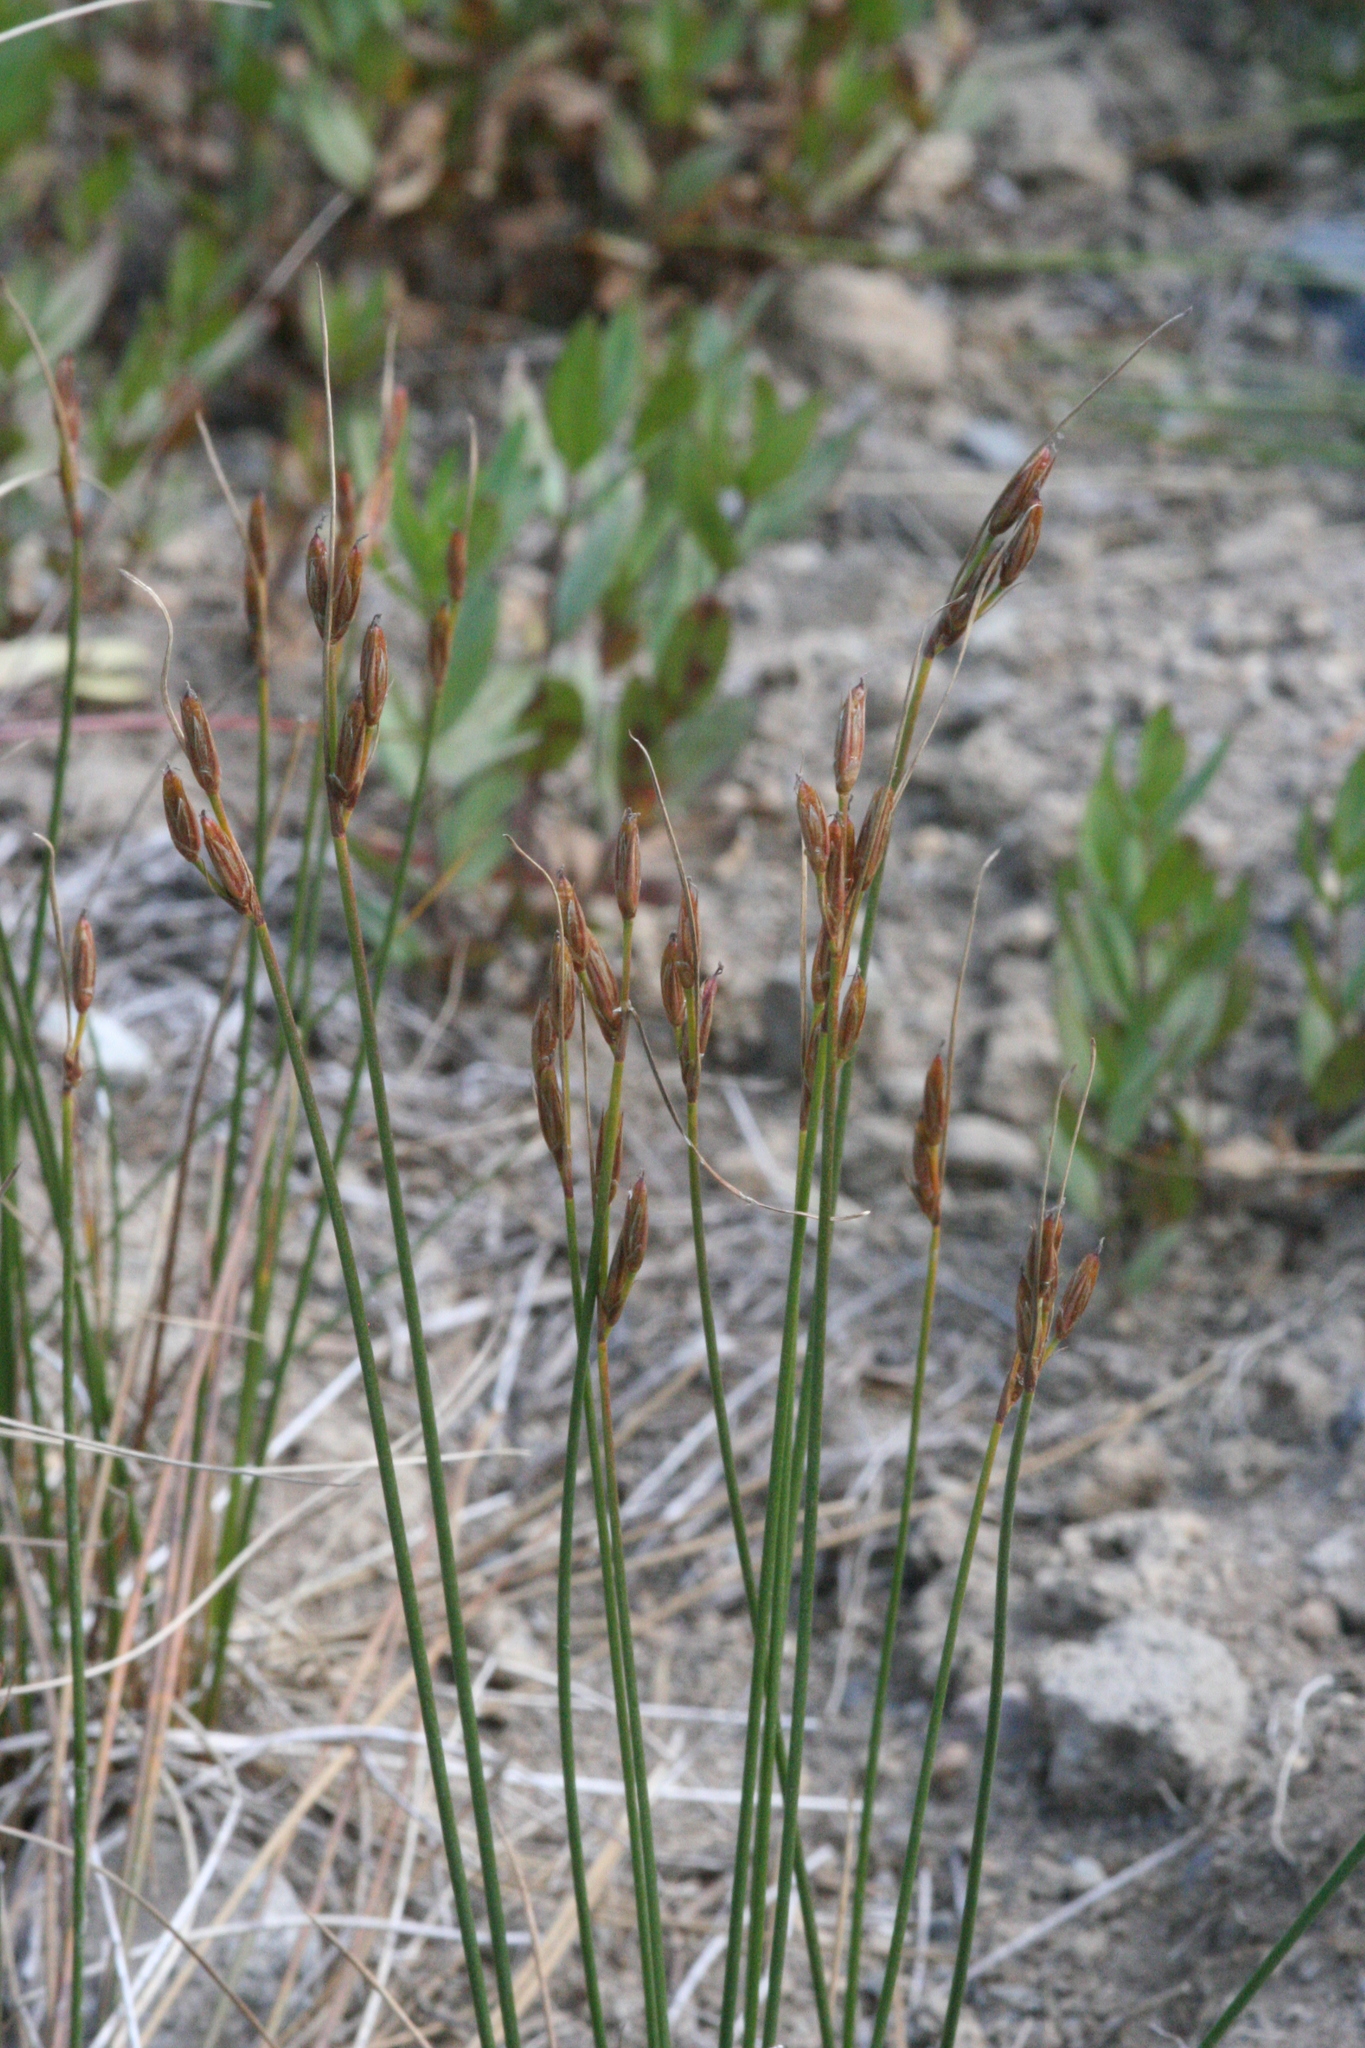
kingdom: Plantae
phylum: Tracheophyta
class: Liliopsida
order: Poales
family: Juncaceae
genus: Juncus
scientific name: Juncus parryi
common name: Parry's rush
